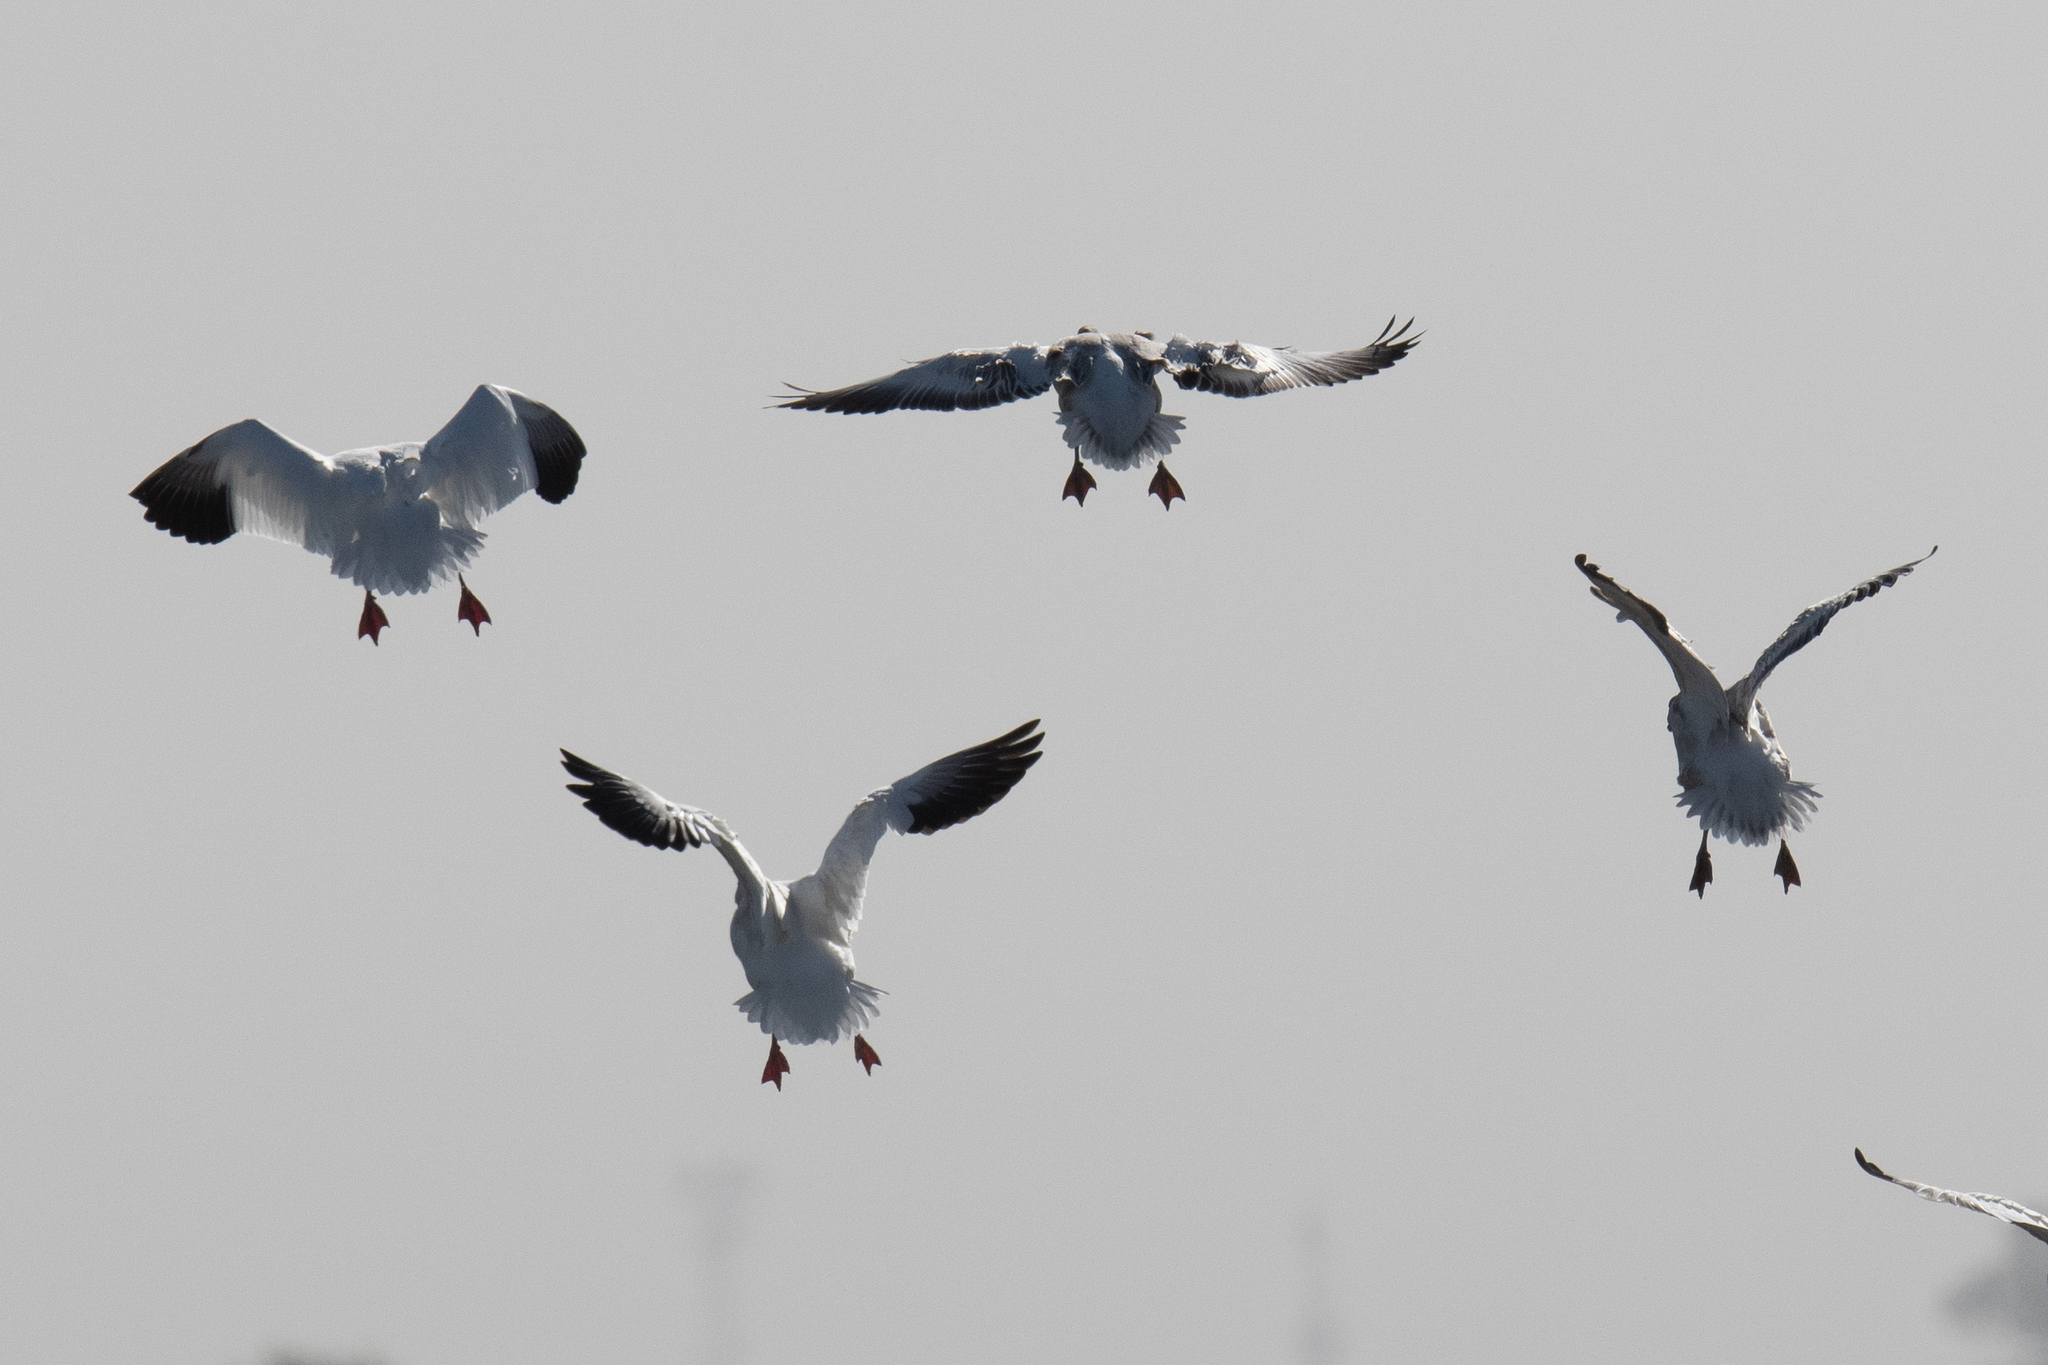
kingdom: Animalia
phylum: Chordata
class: Aves
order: Anseriformes
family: Anatidae
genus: Anser
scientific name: Anser caerulescens
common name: Snow goose
